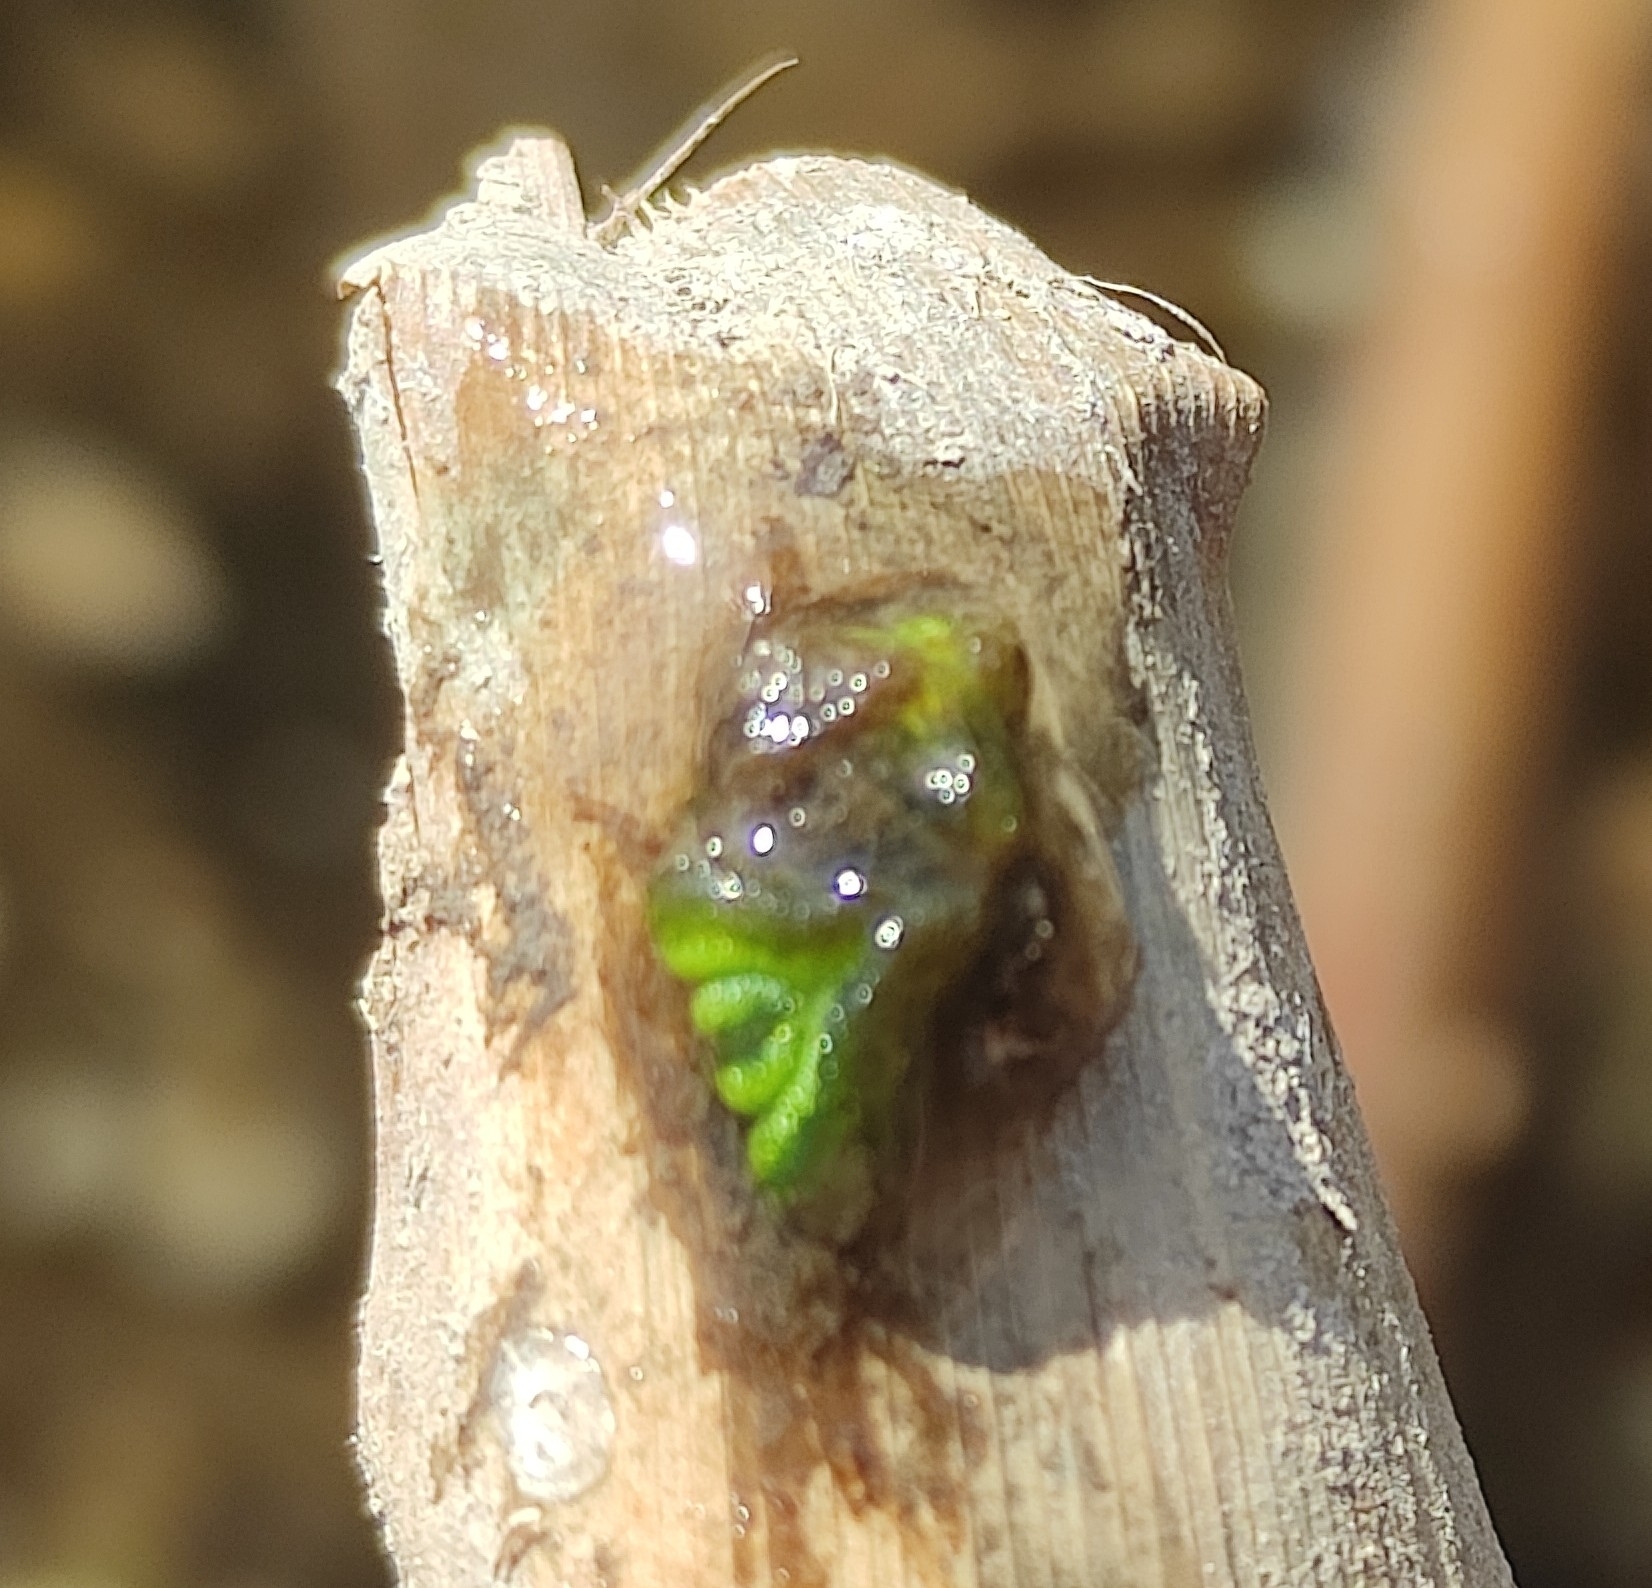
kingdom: Plantae
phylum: Marchantiophyta
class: Marchantiopsida
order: Marchantiales
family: Ricciaceae
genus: Ricciocarpos
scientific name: Ricciocarpos natans
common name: Purple-fringed liverwort
